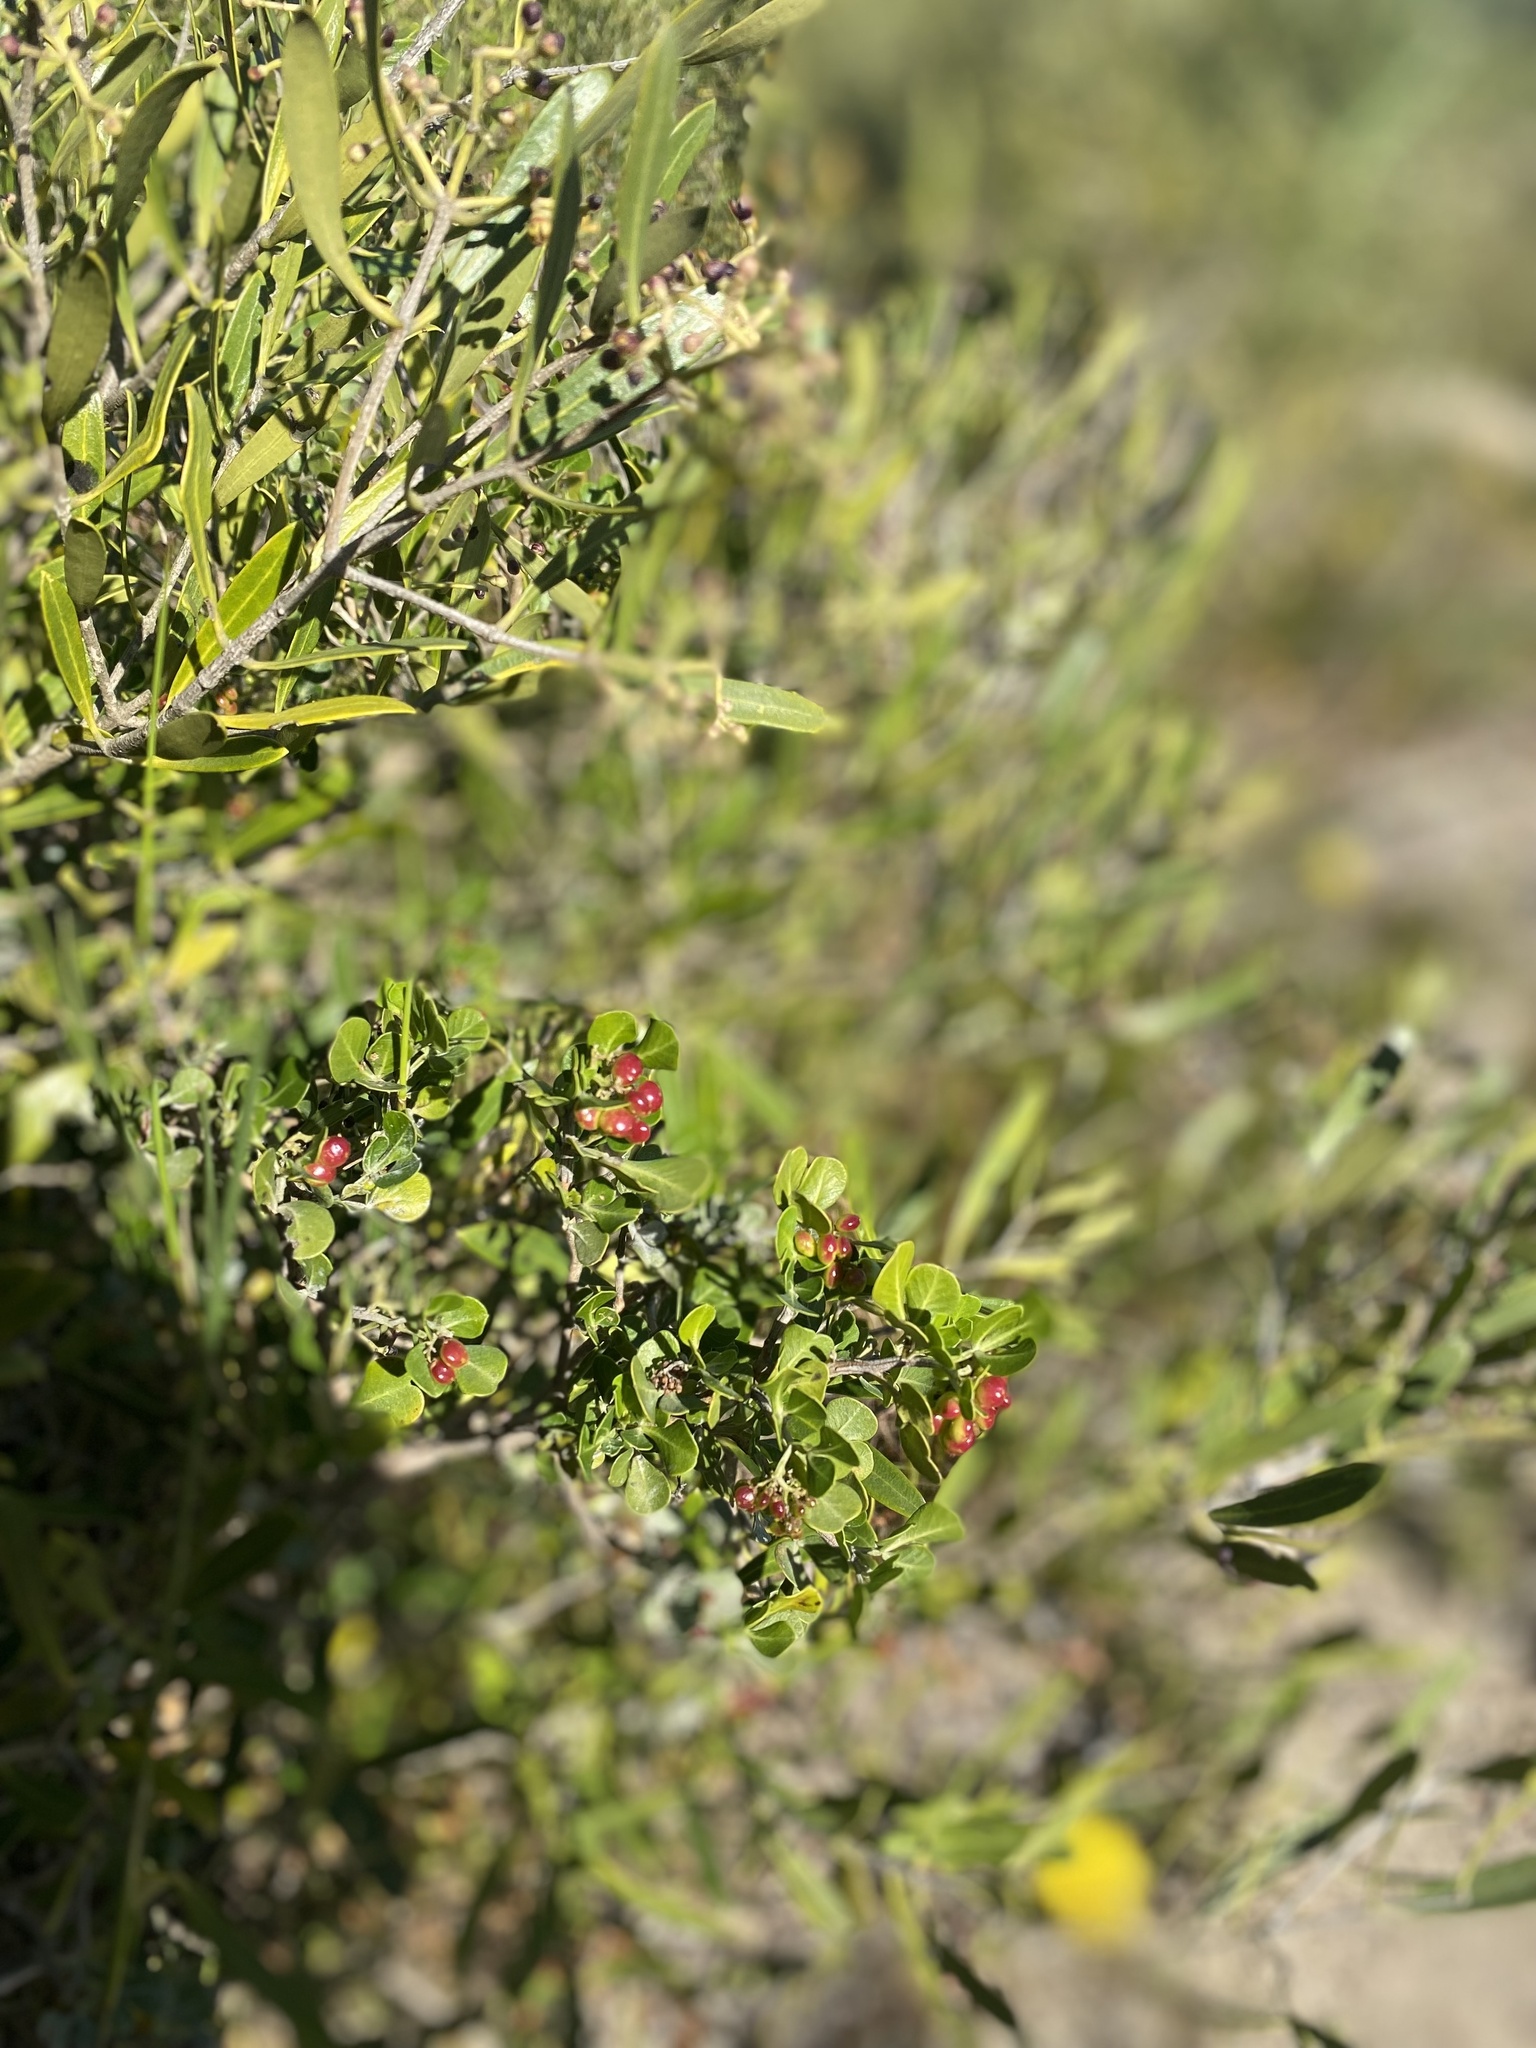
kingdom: Plantae
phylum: Tracheophyta
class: Magnoliopsida
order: Sapindales
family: Anacardiaceae
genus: Searsia
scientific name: Searsia glauca
